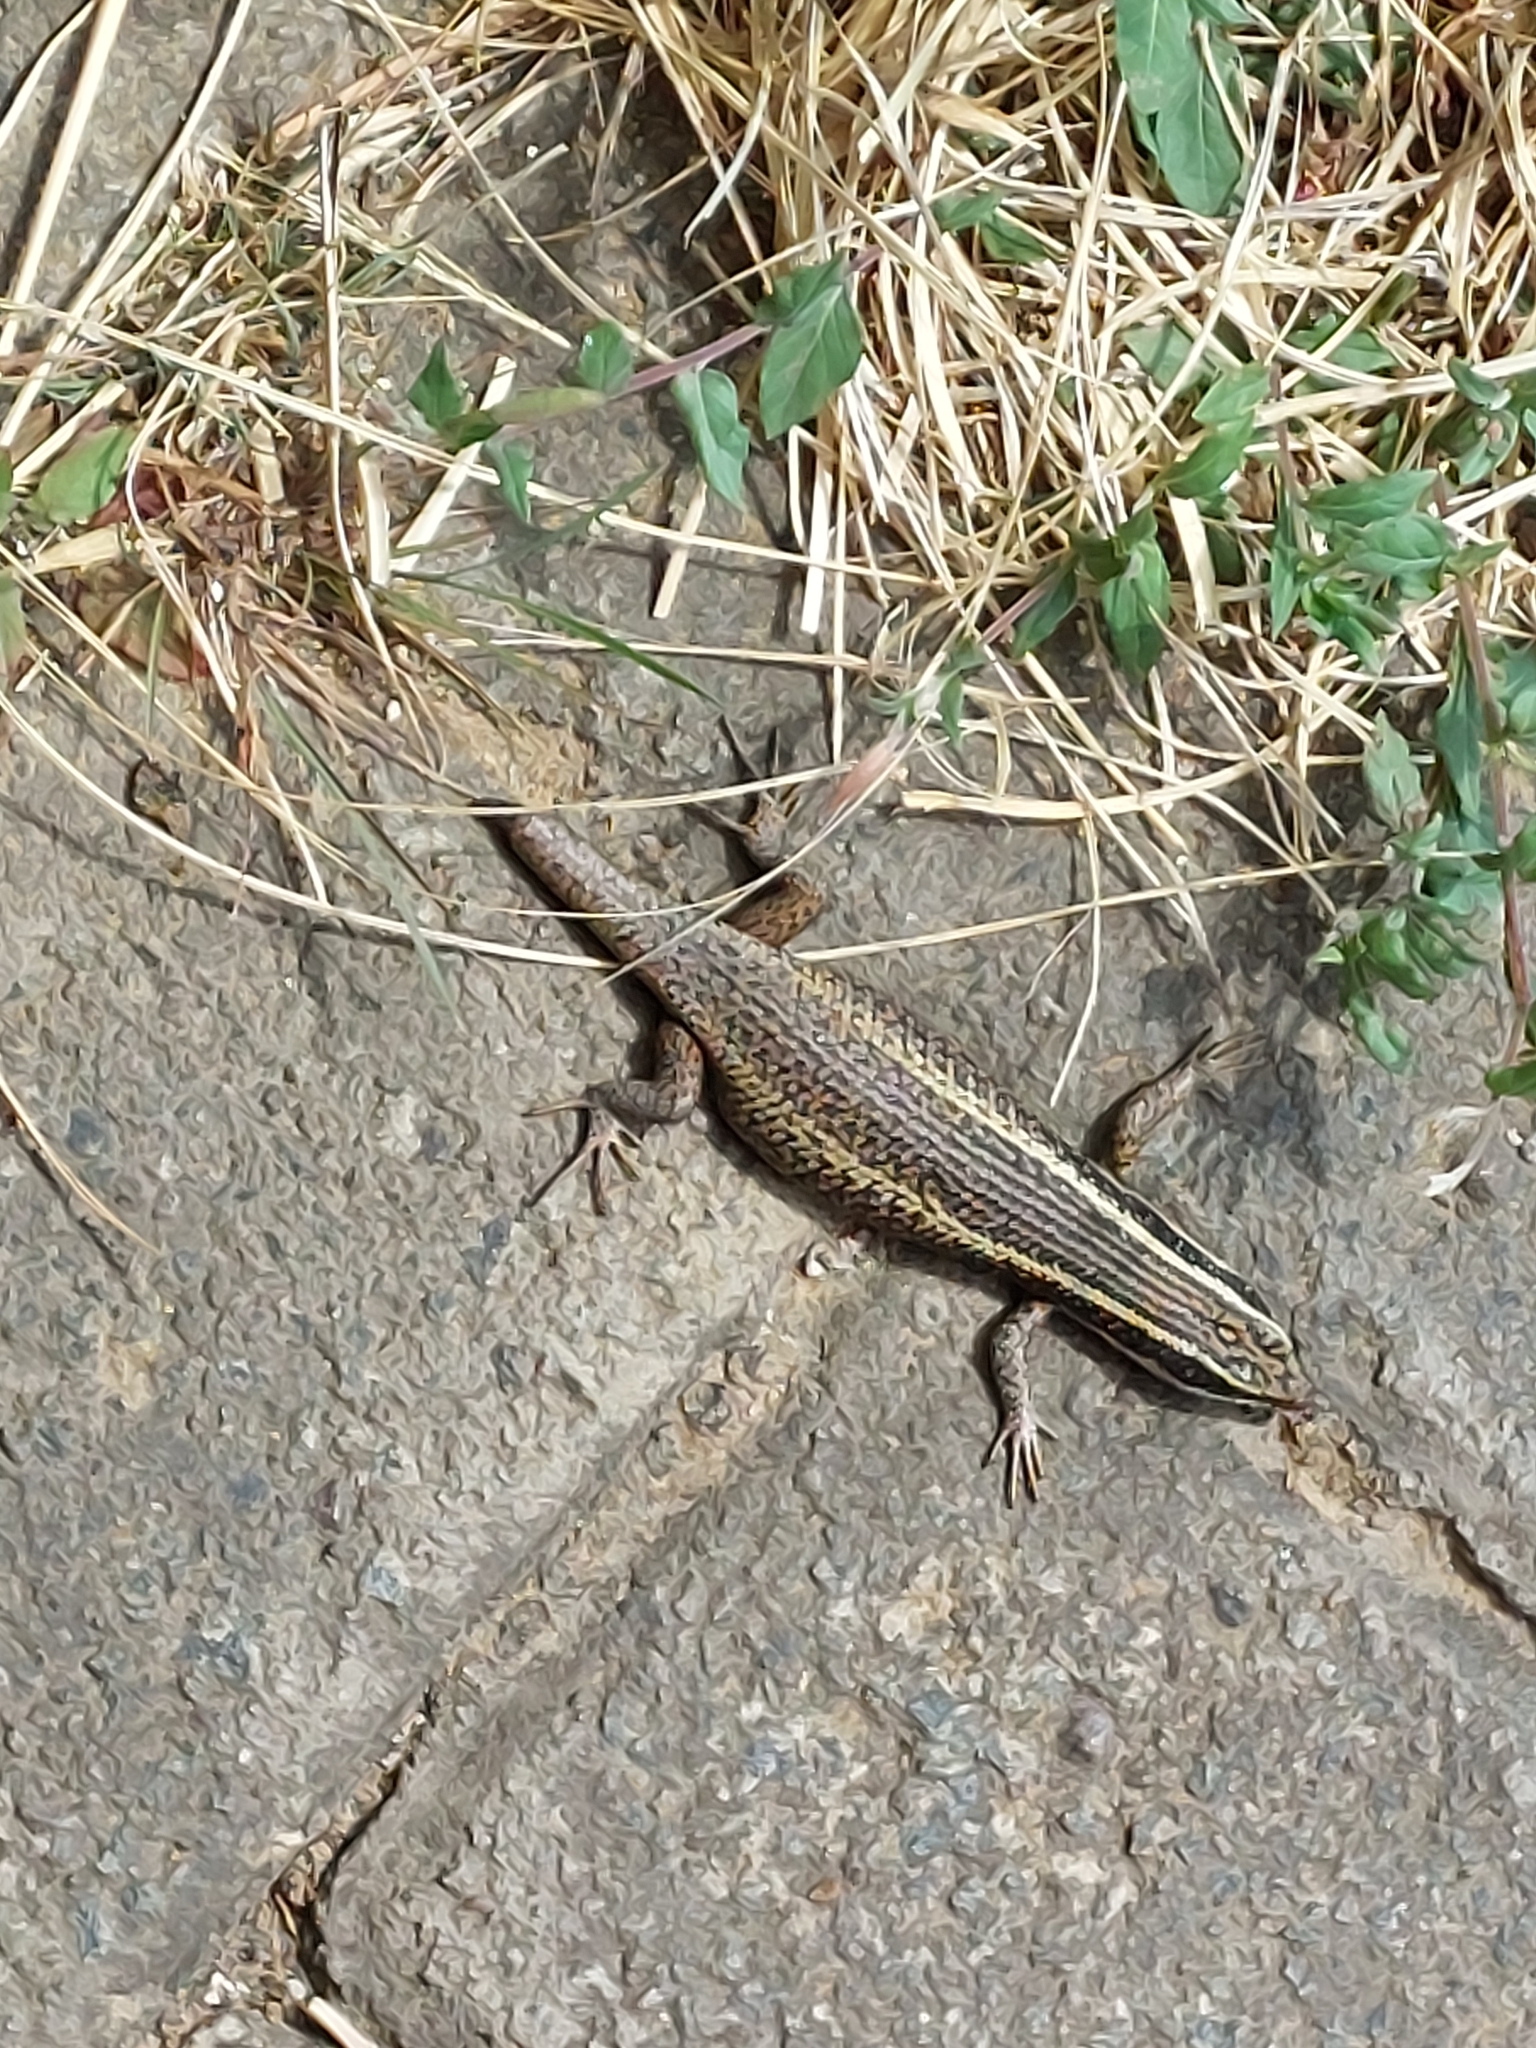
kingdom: Animalia
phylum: Chordata
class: Squamata
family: Scincidae
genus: Trachylepis
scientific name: Trachylepis punctatissima
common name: Montane speckled skink
